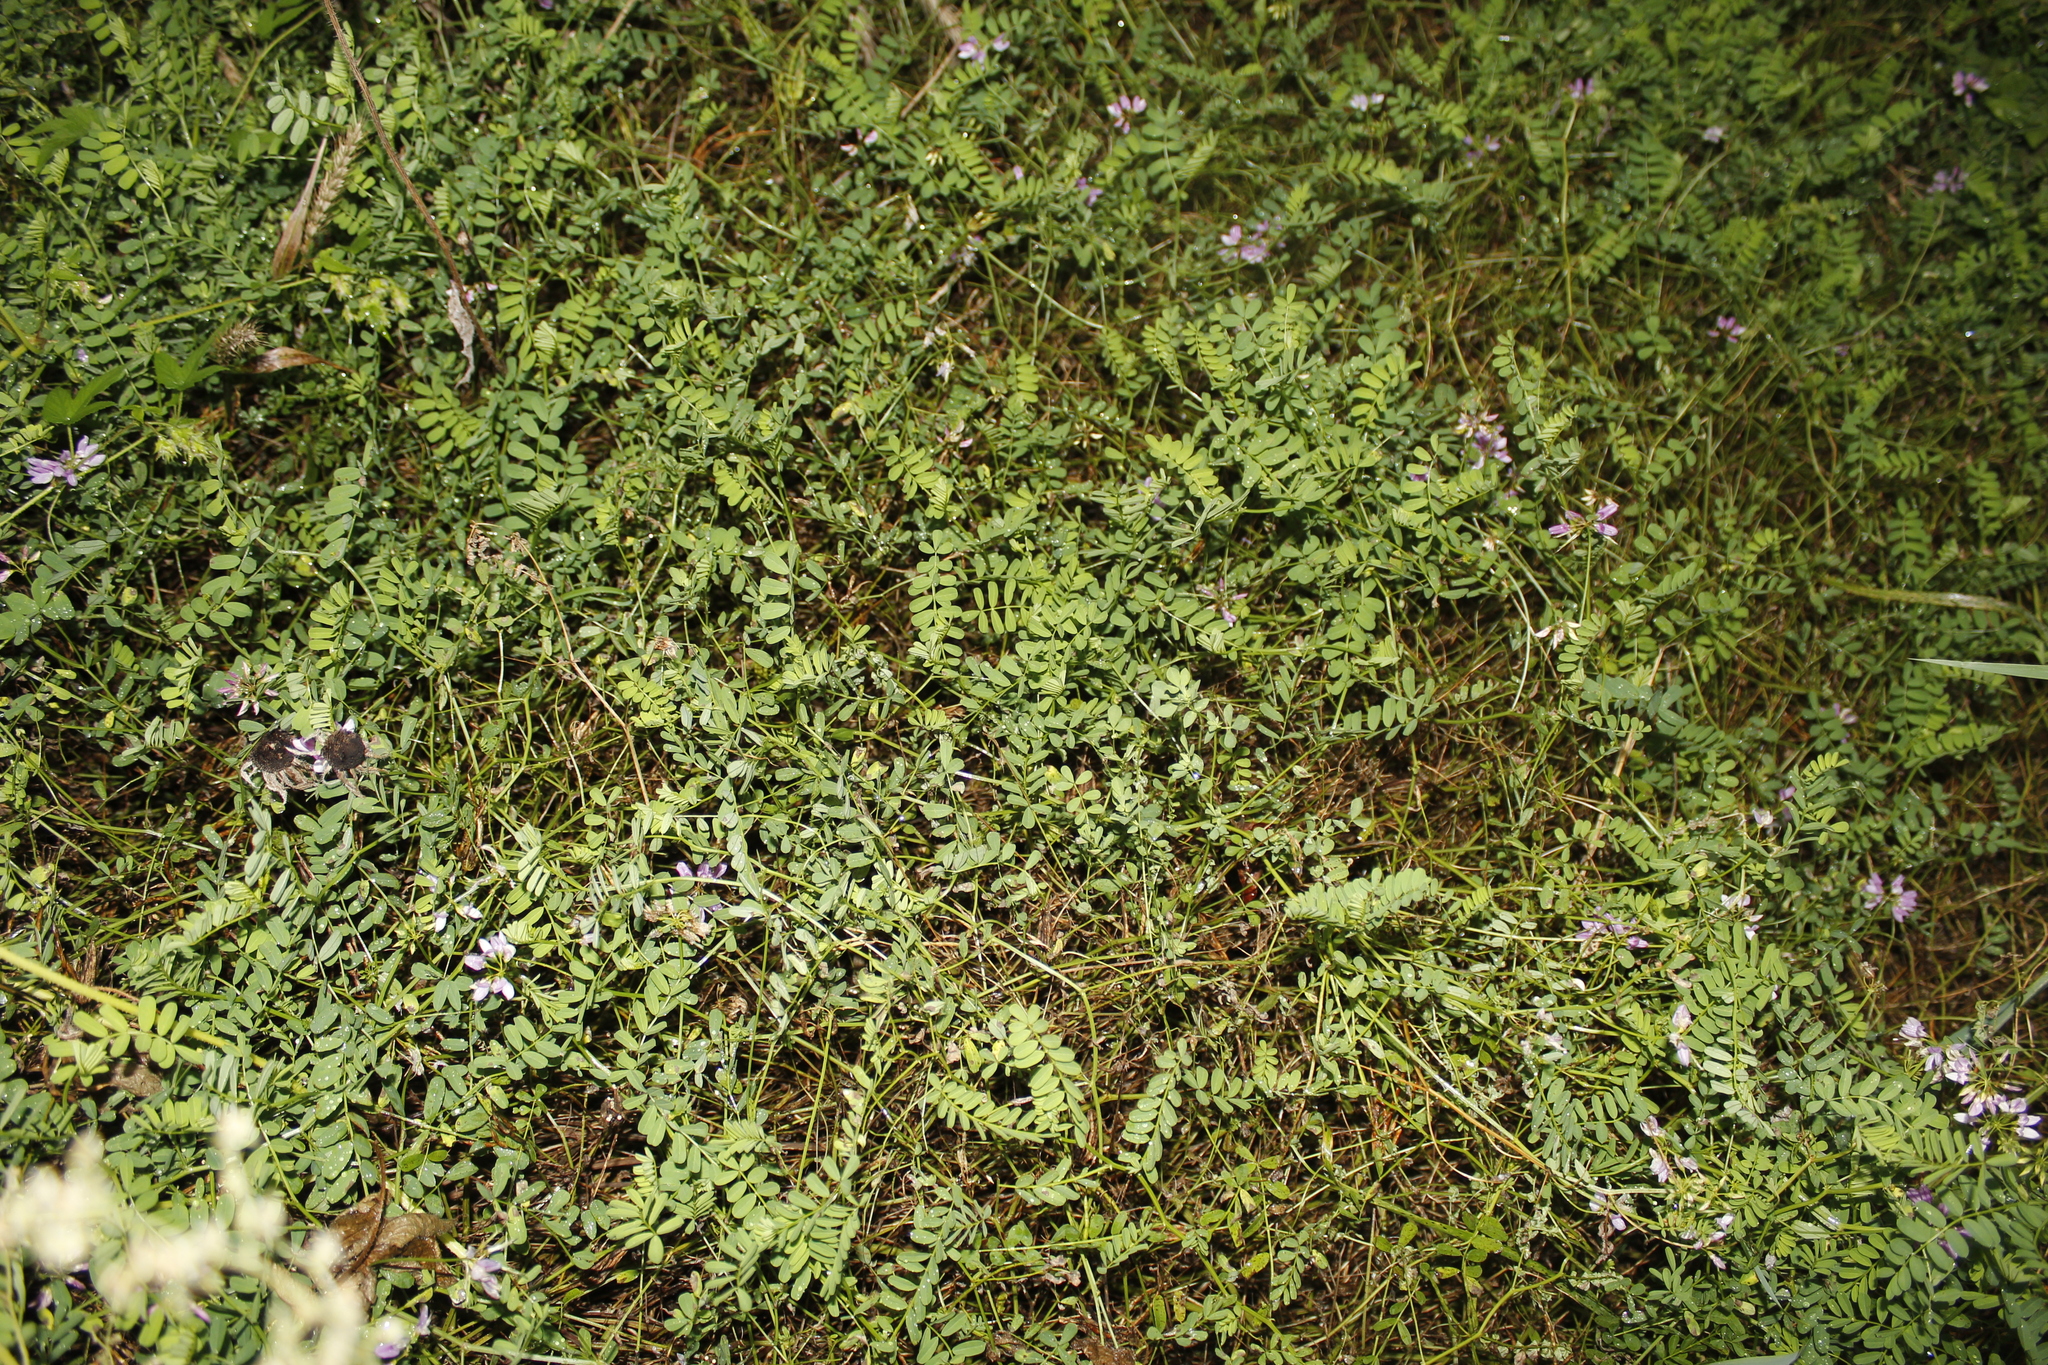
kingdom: Plantae
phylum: Tracheophyta
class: Magnoliopsida
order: Fabales
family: Fabaceae
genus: Coronilla
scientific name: Coronilla varia
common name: Crownvetch
